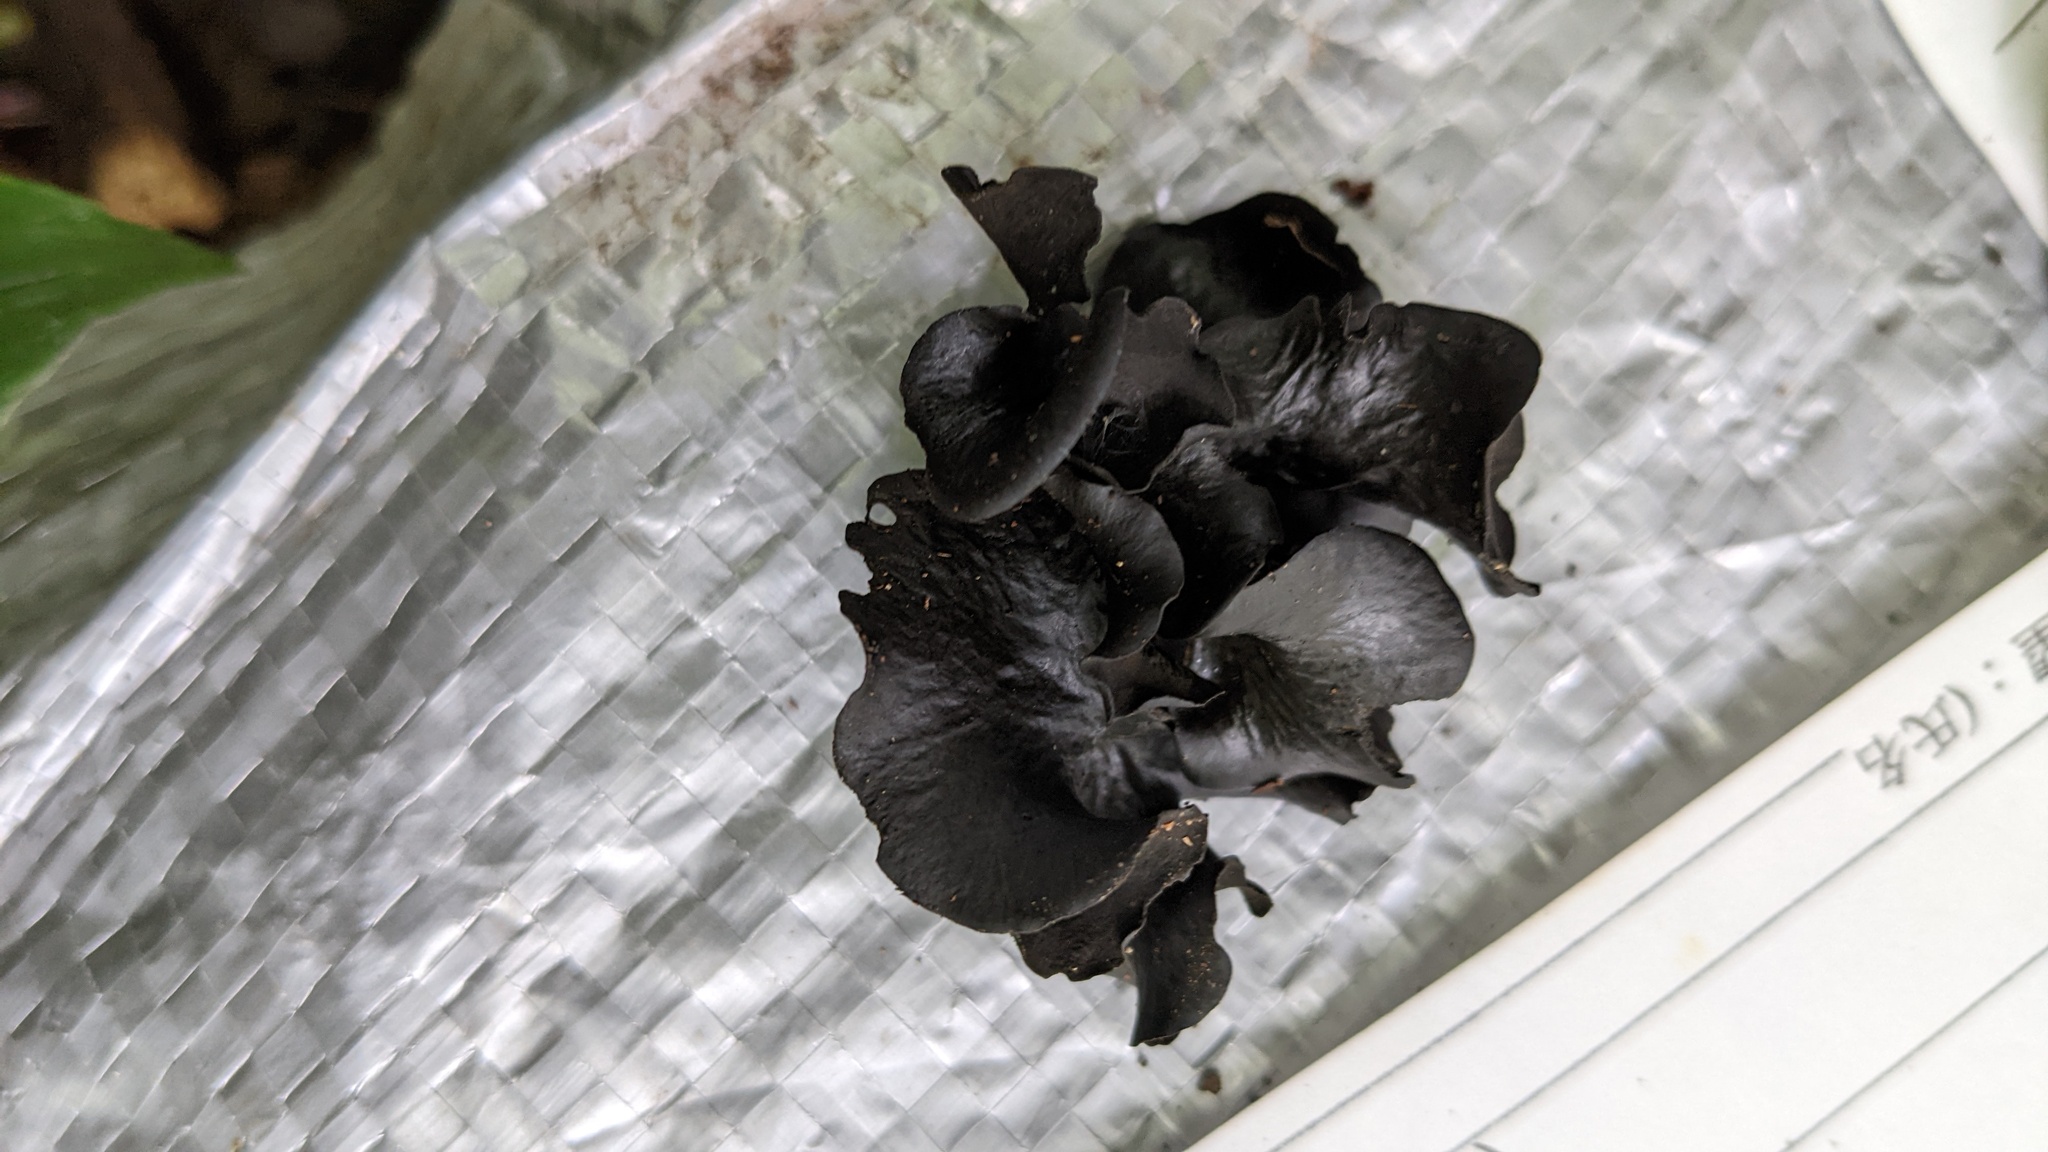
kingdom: Fungi
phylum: Ascomycota
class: Leotiomycetes
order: Helotiales
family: Cordieritidaceae
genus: Cordierites
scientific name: Cordierites frondosus
